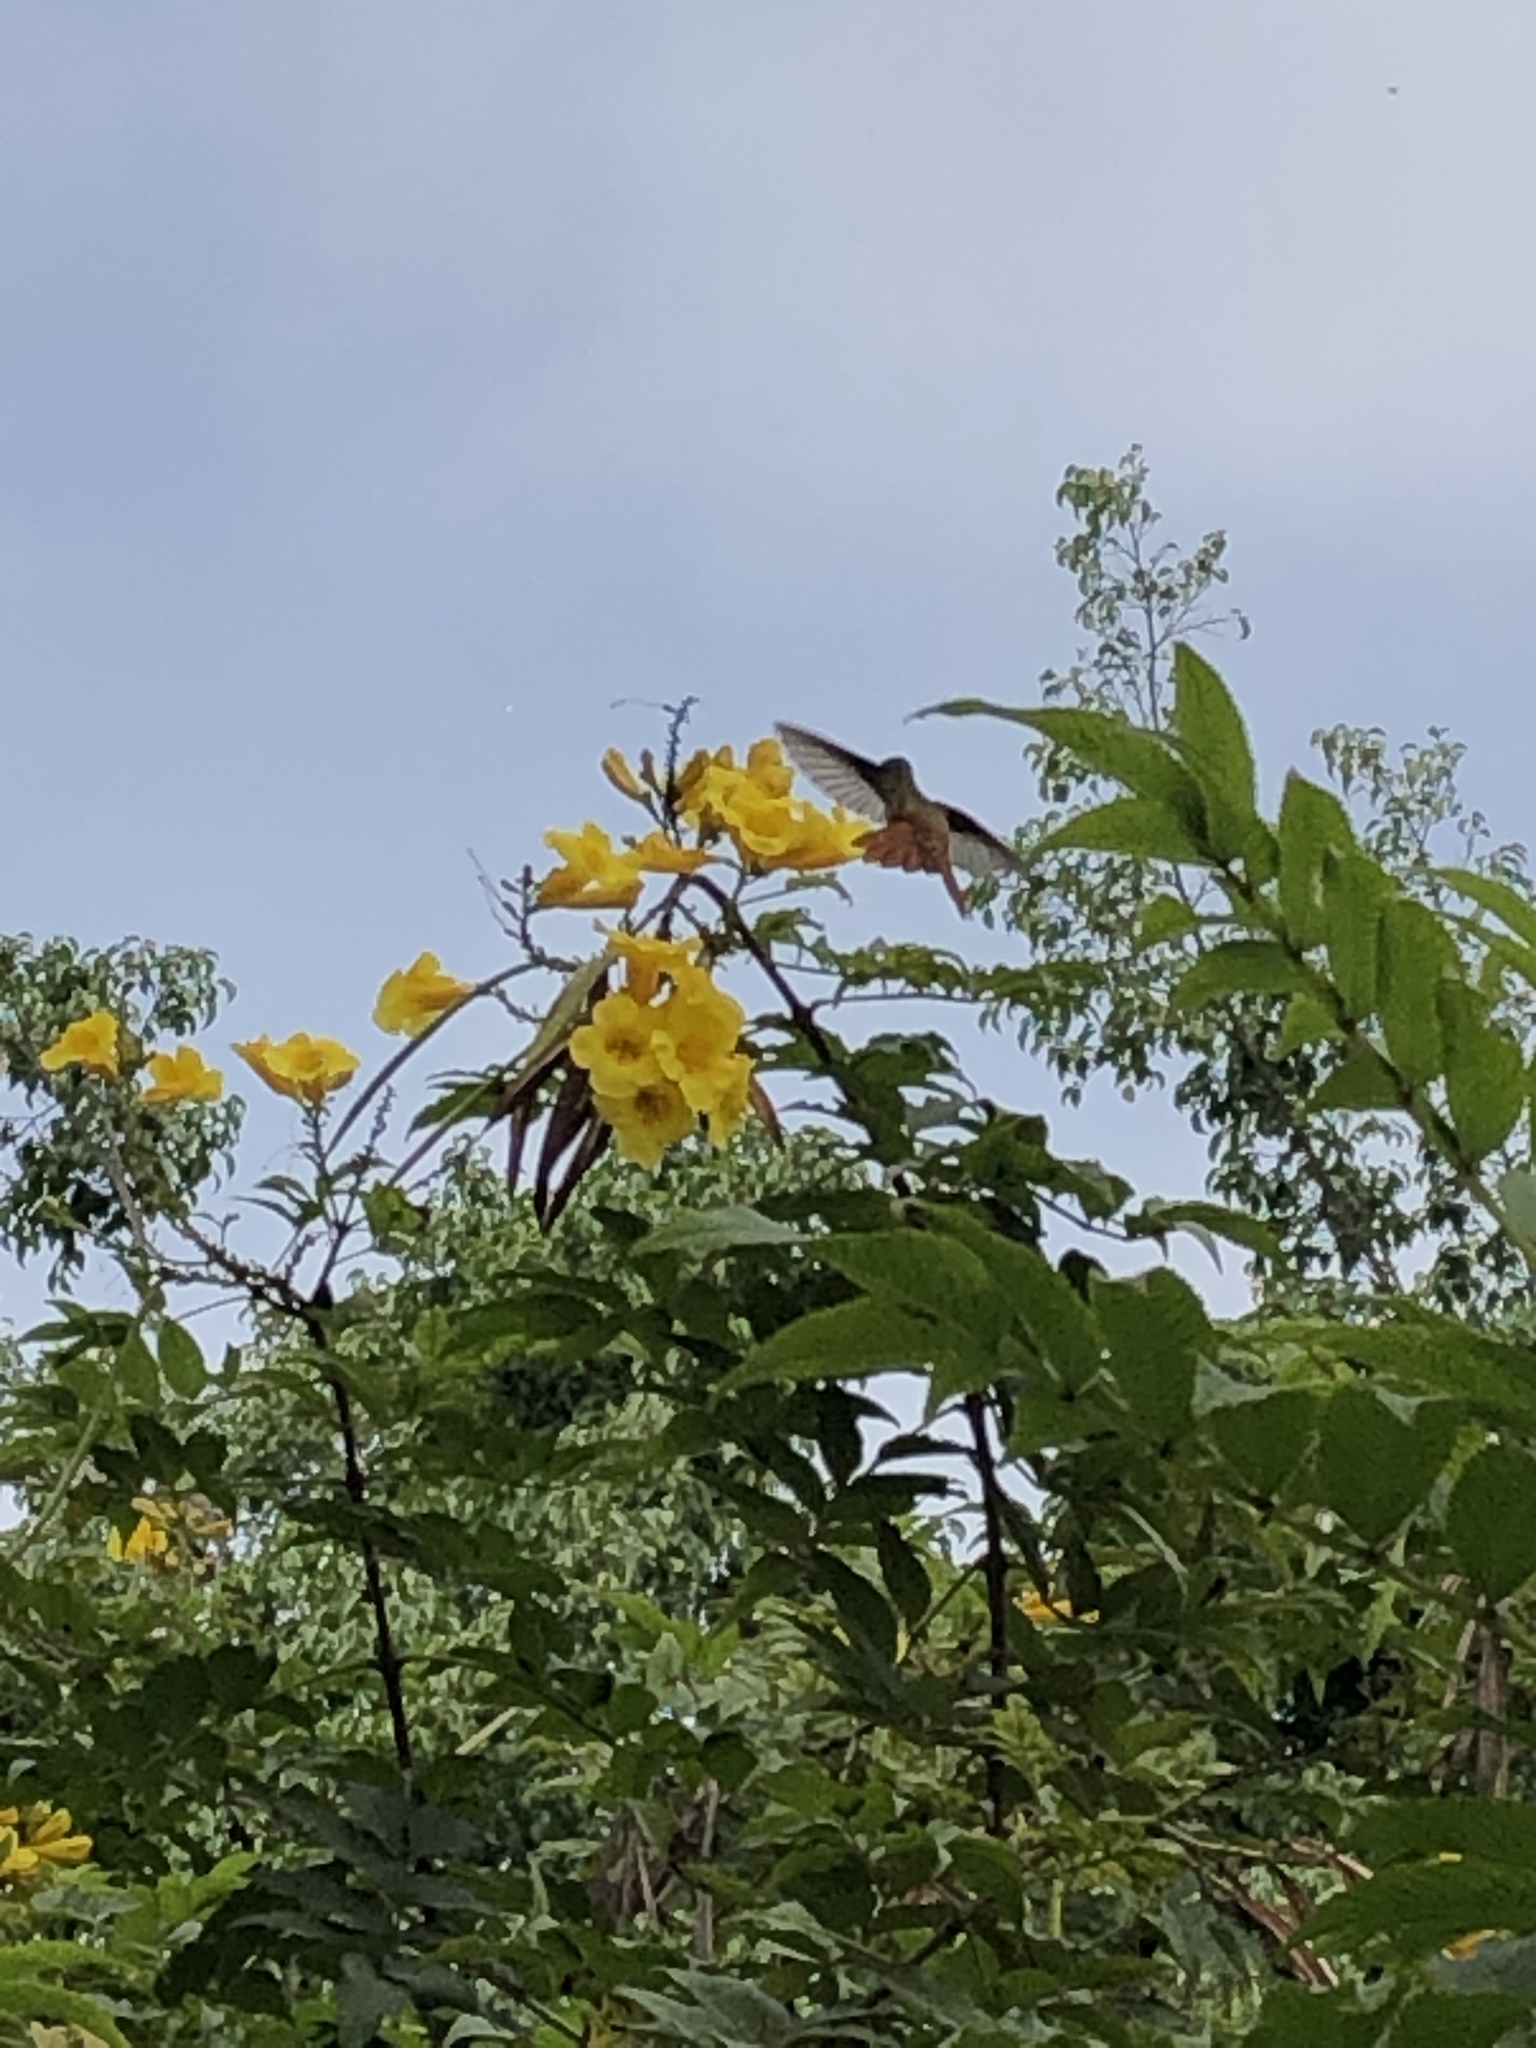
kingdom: Animalia
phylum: Chordata
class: Aves
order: Apodiformes
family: Trochilidae
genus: Amazilis
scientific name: Amazilis amazilia
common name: Amazilia hummingbird
